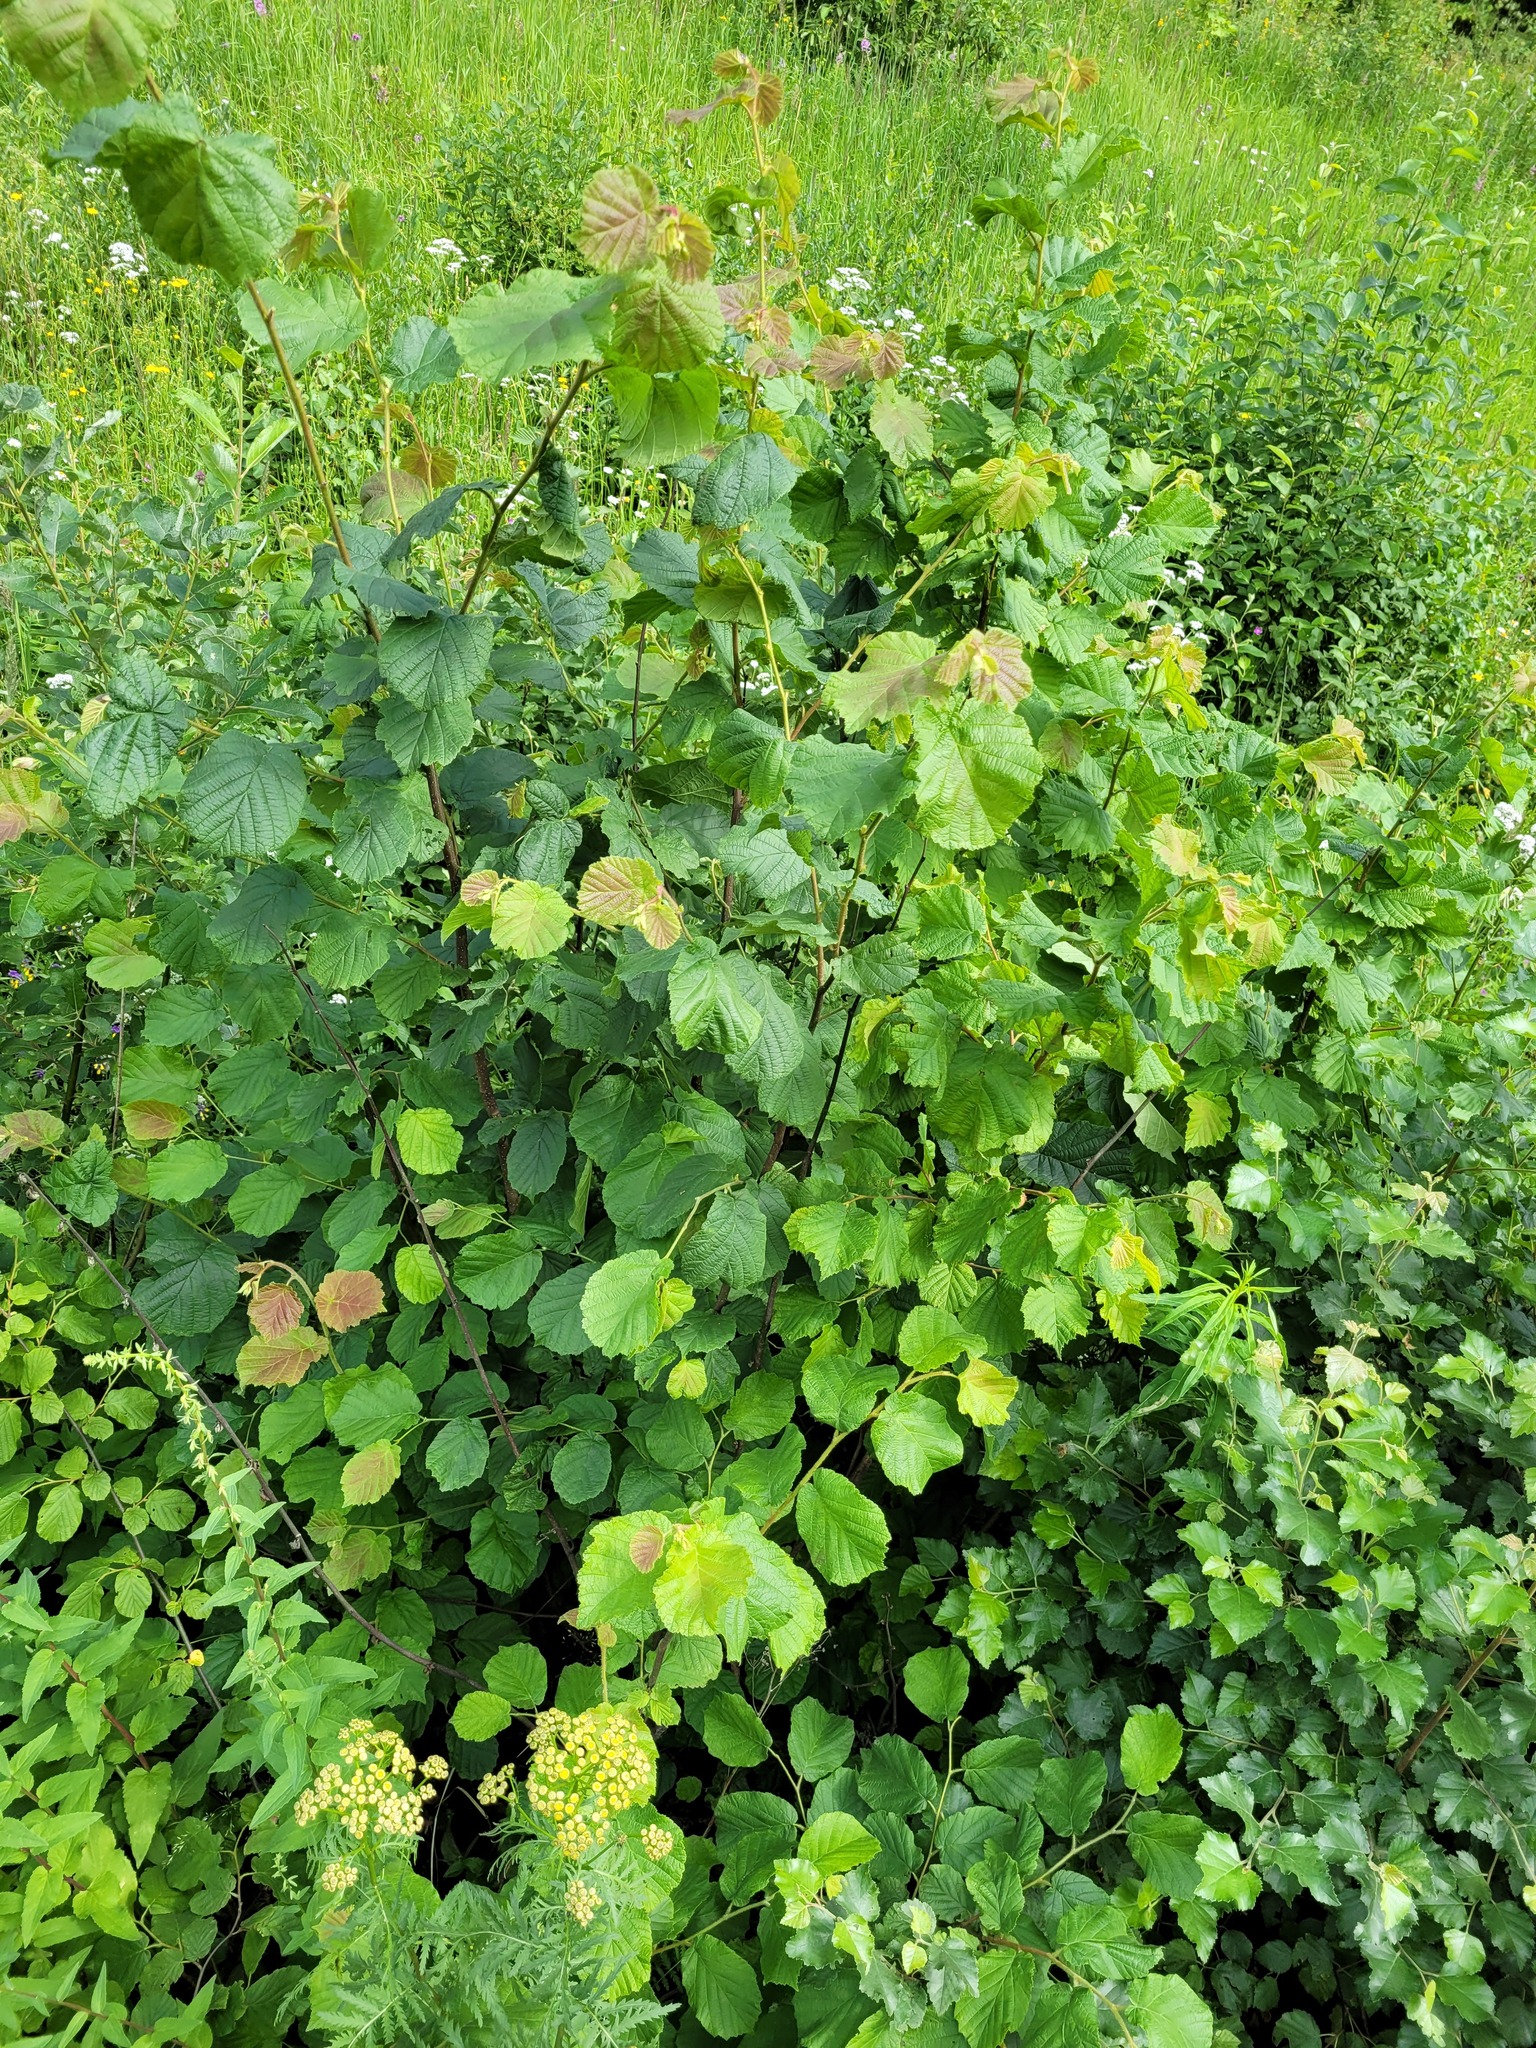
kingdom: Plantae
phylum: Tracheophyta
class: Magnoliopsida
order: Fagales
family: Betulaceae
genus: Corylus
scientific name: Corylus avellana
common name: European hazel
